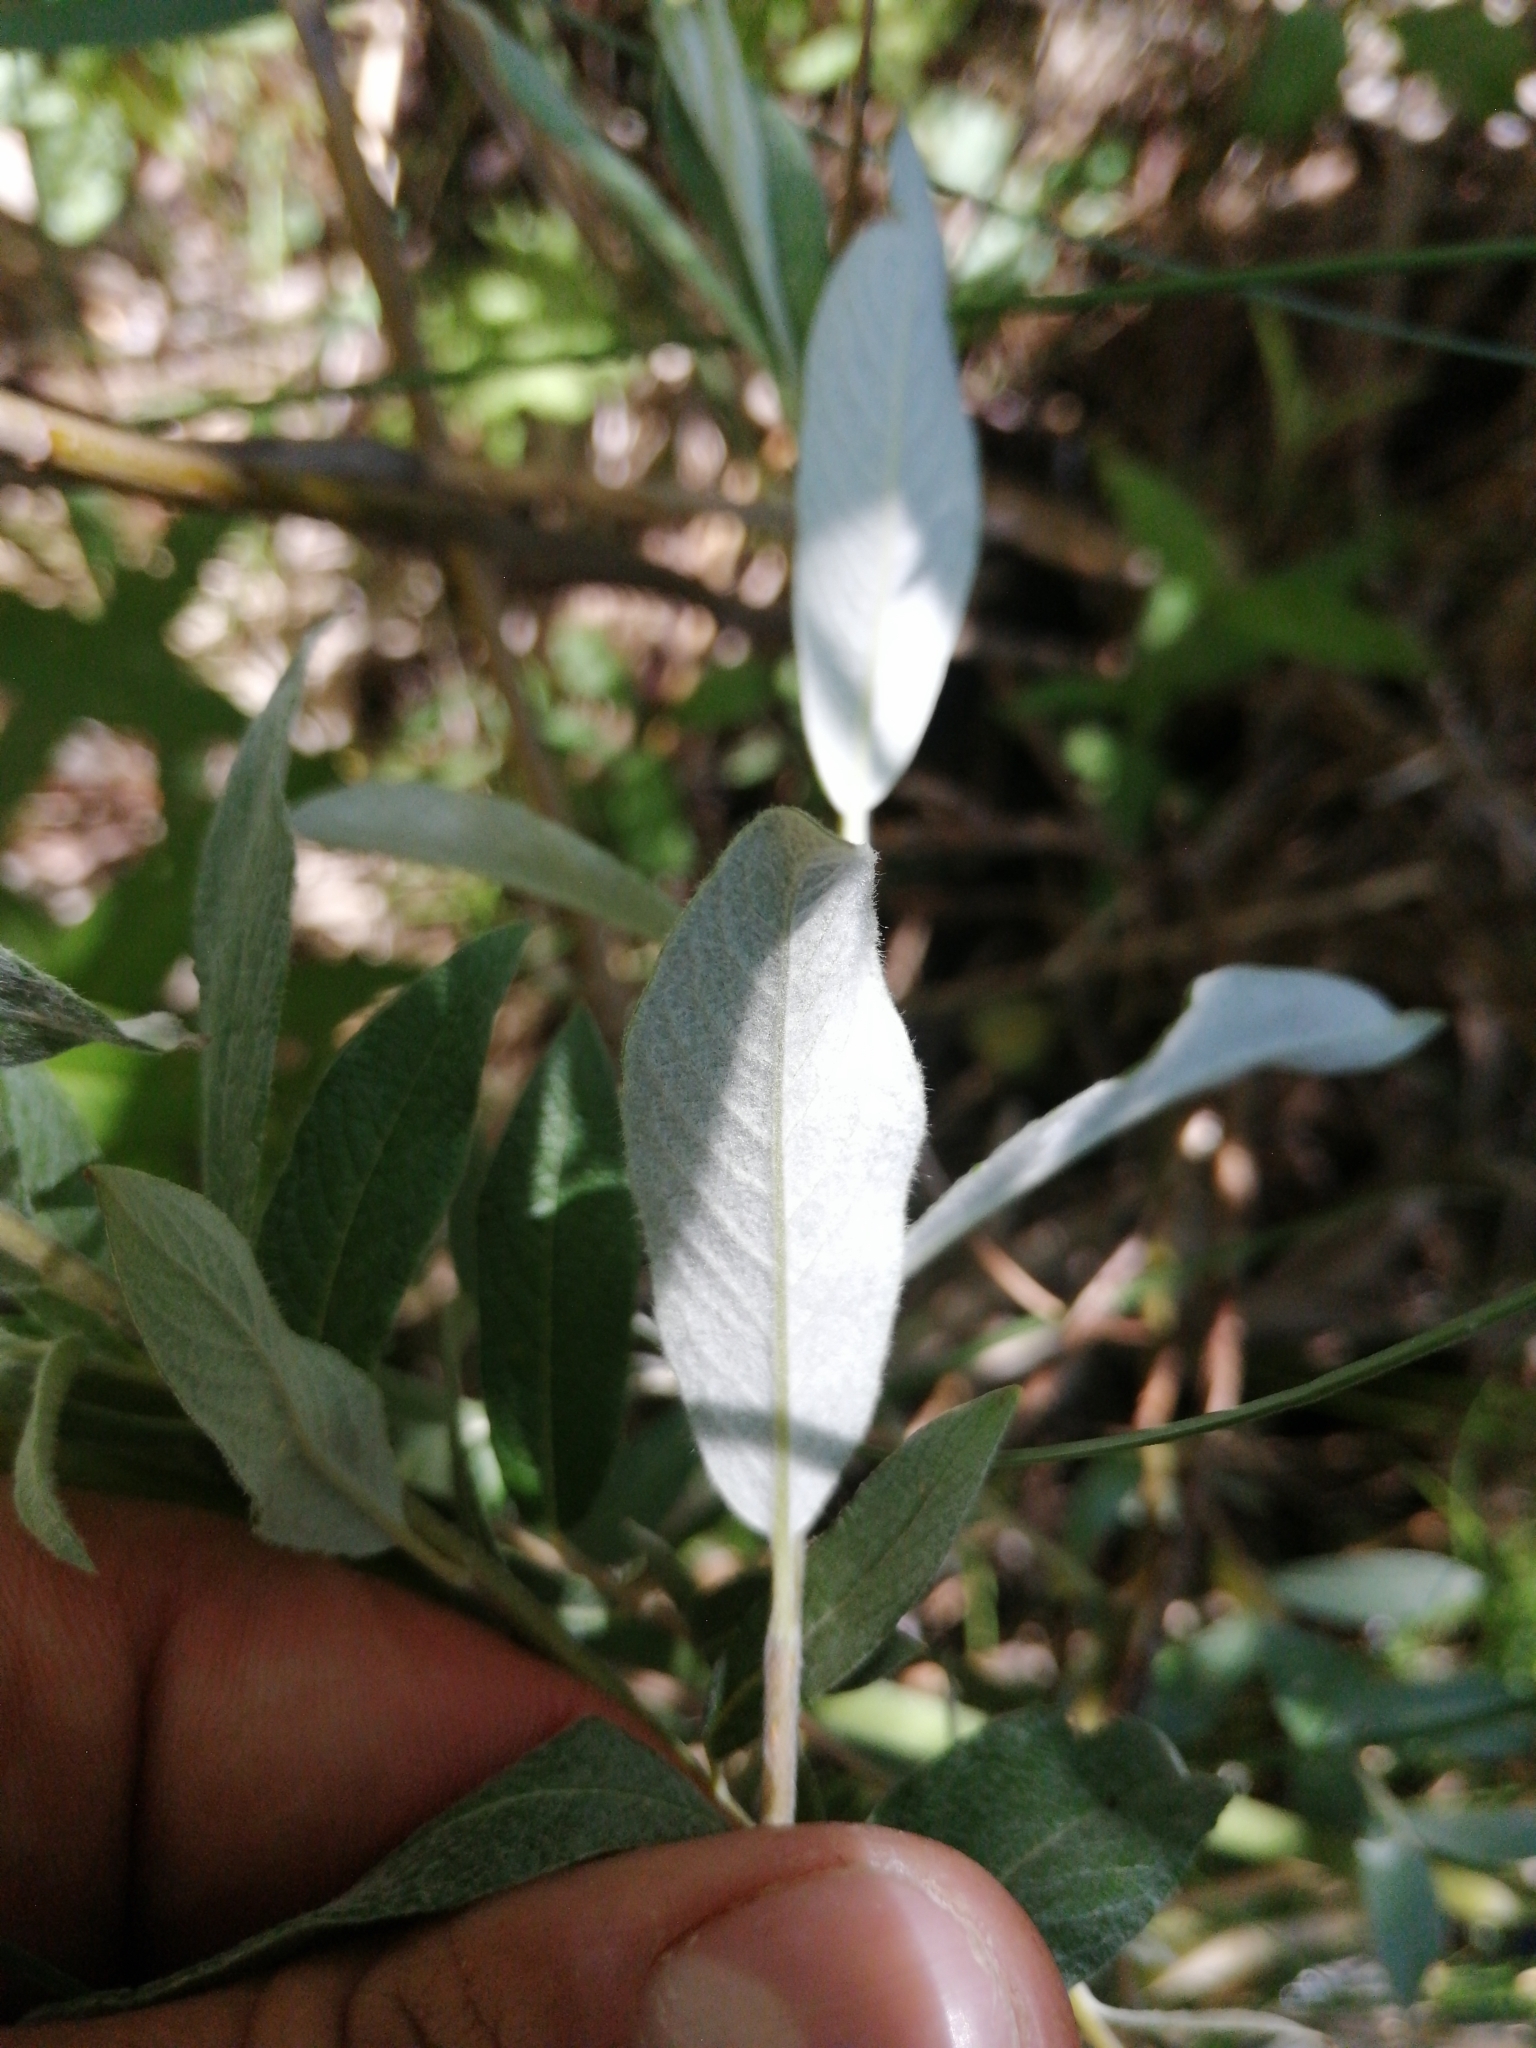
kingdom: Plantae
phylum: Tracheophyta
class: Magnoliopsida
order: Malpighiales
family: Salicaceae
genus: Salix
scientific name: Salix lapponum
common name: Downy willow
